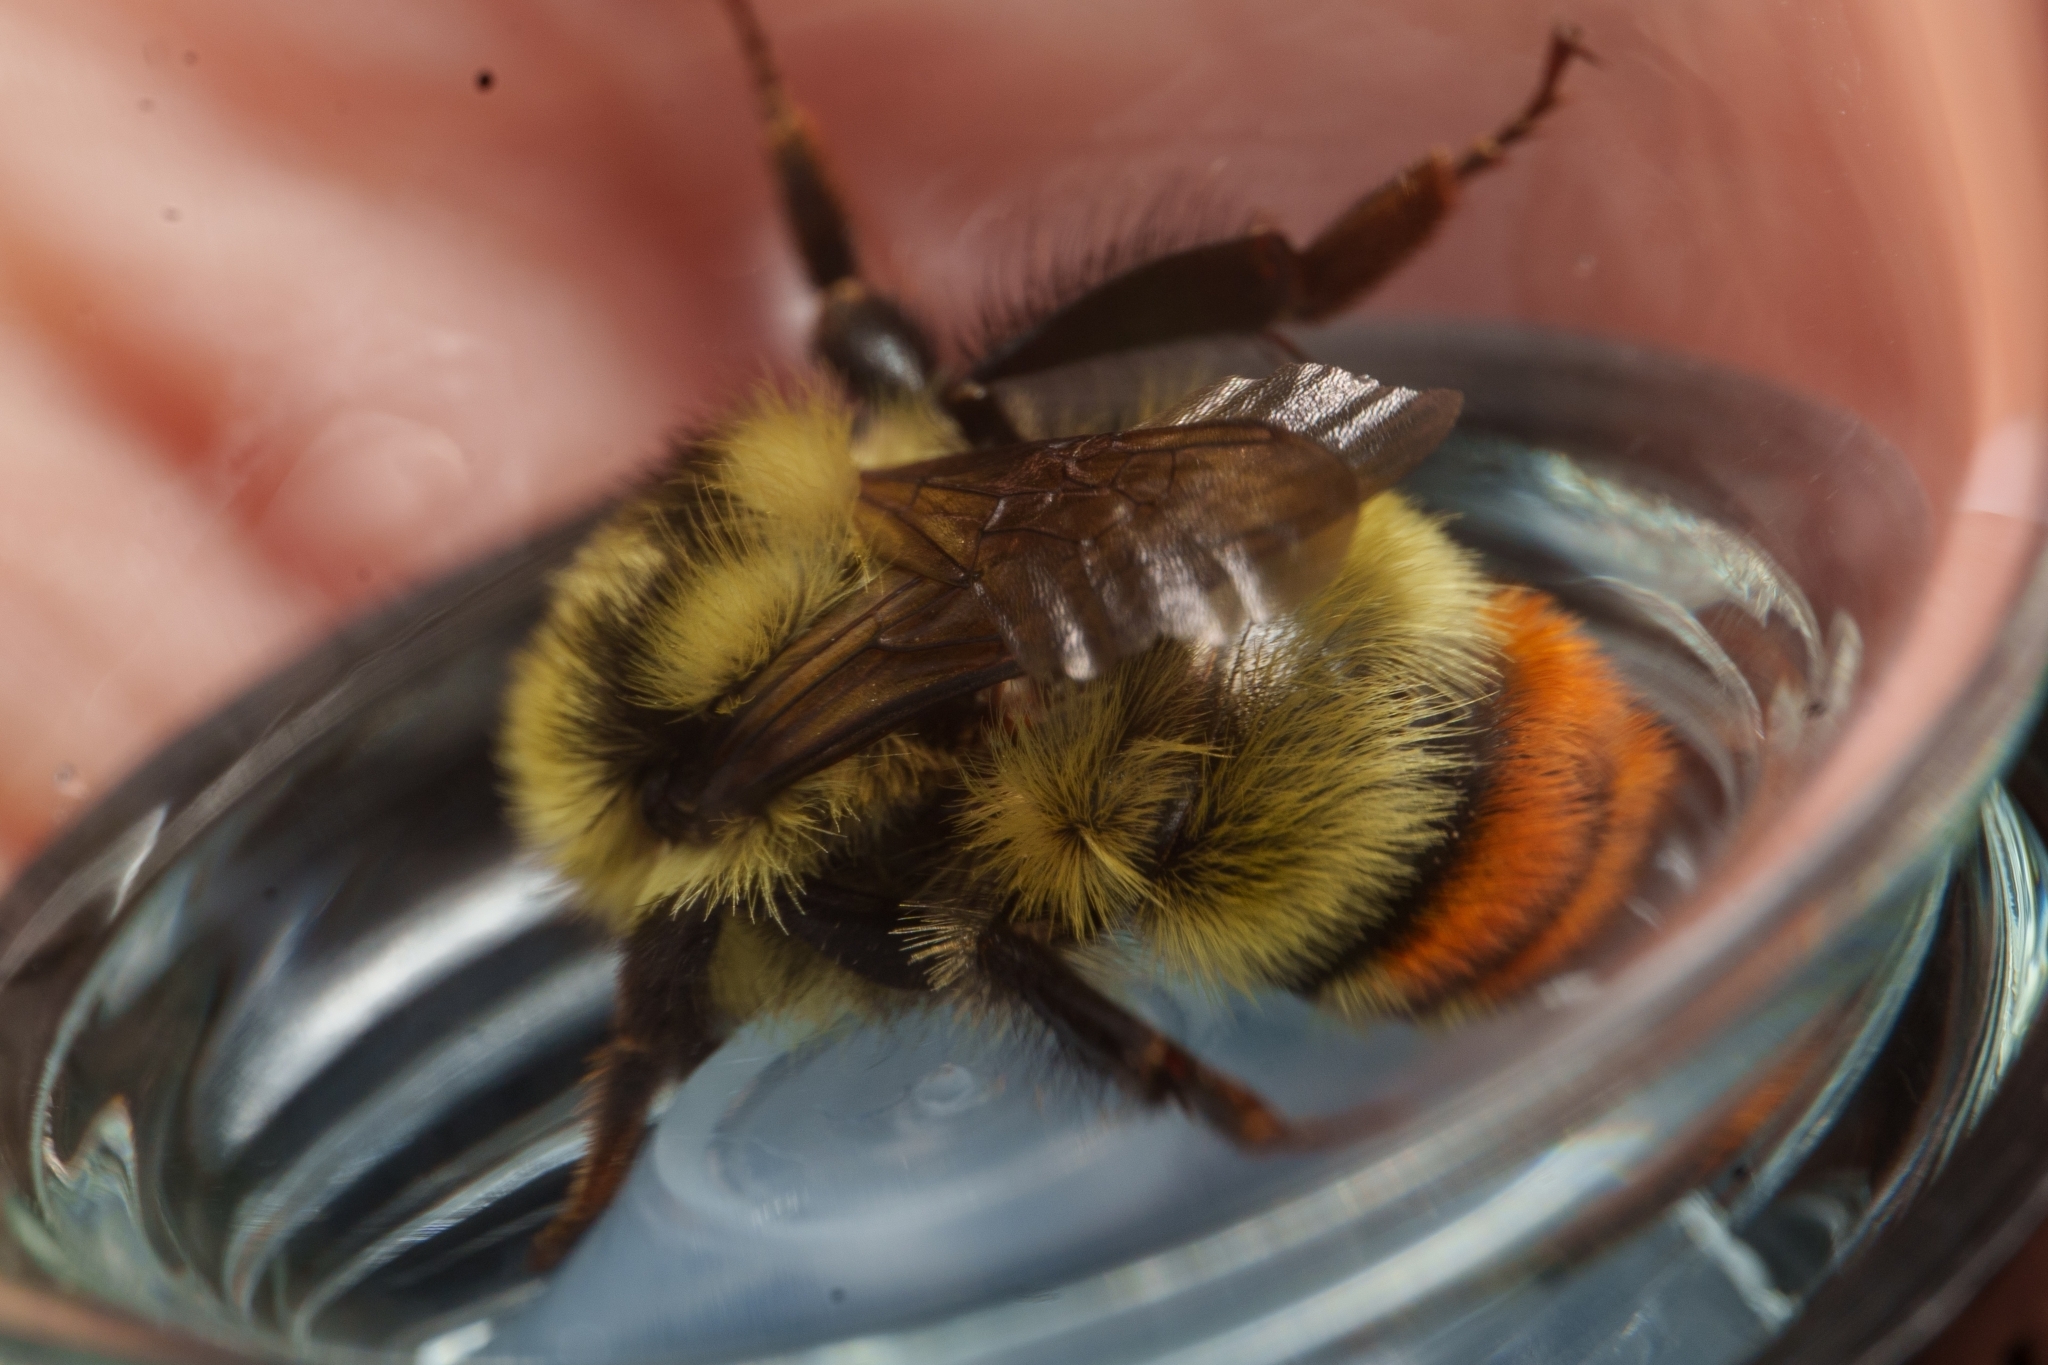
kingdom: Animalia
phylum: Arthropoda
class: Insecta
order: Hymenoptera
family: Apidae
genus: Bombus
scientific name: Bombus centralis
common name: Central bumble bee
